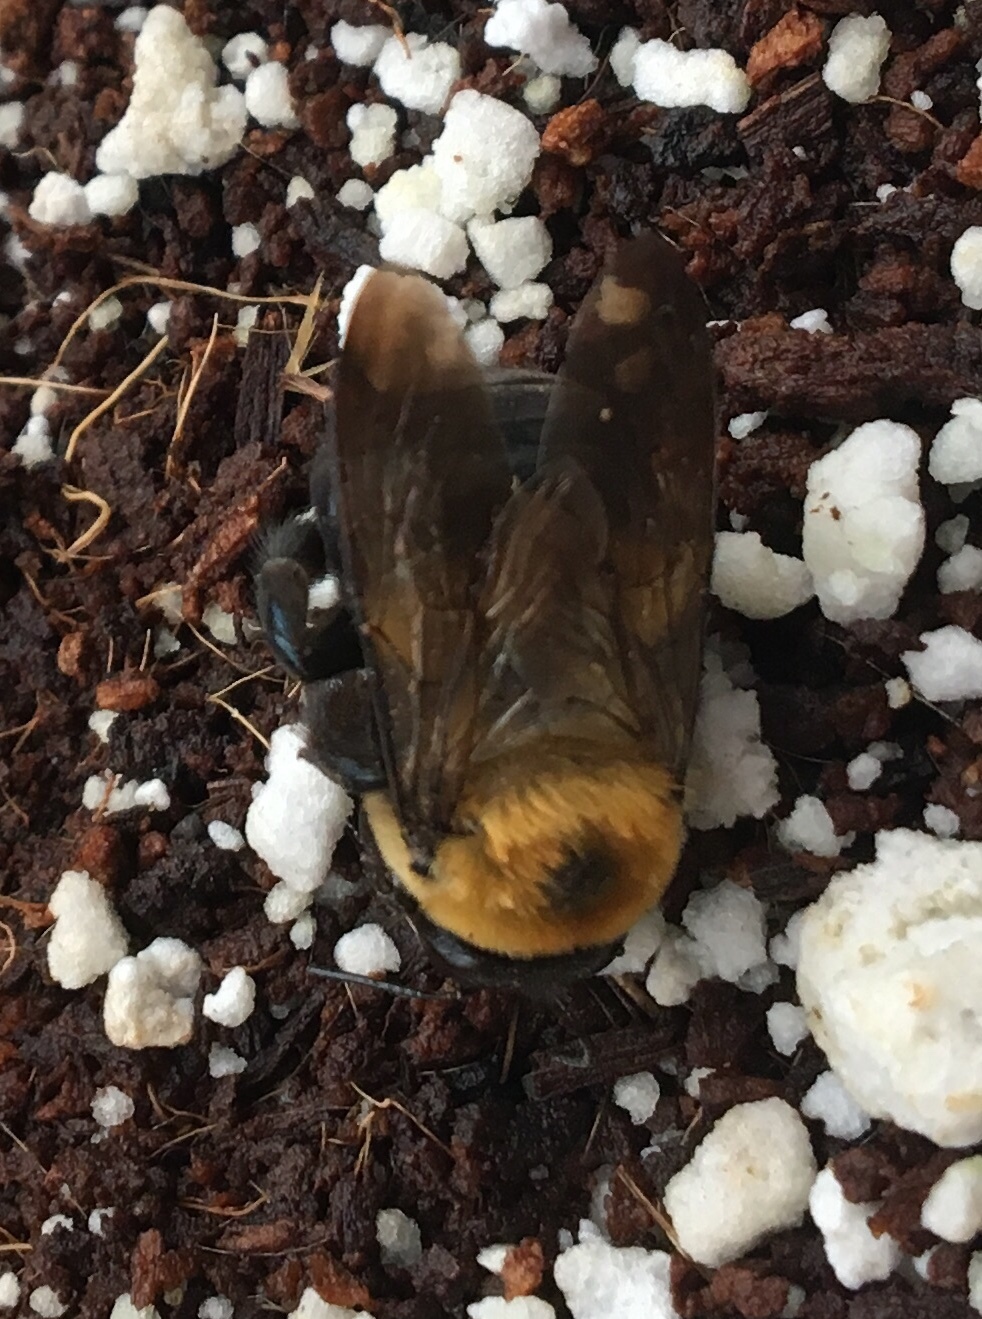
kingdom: Animalia
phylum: Arthropoda
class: Insecta
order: Hymenoptera
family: Apidae
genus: Xylocopa
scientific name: Xylocopa virginica
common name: Carpenter bee
